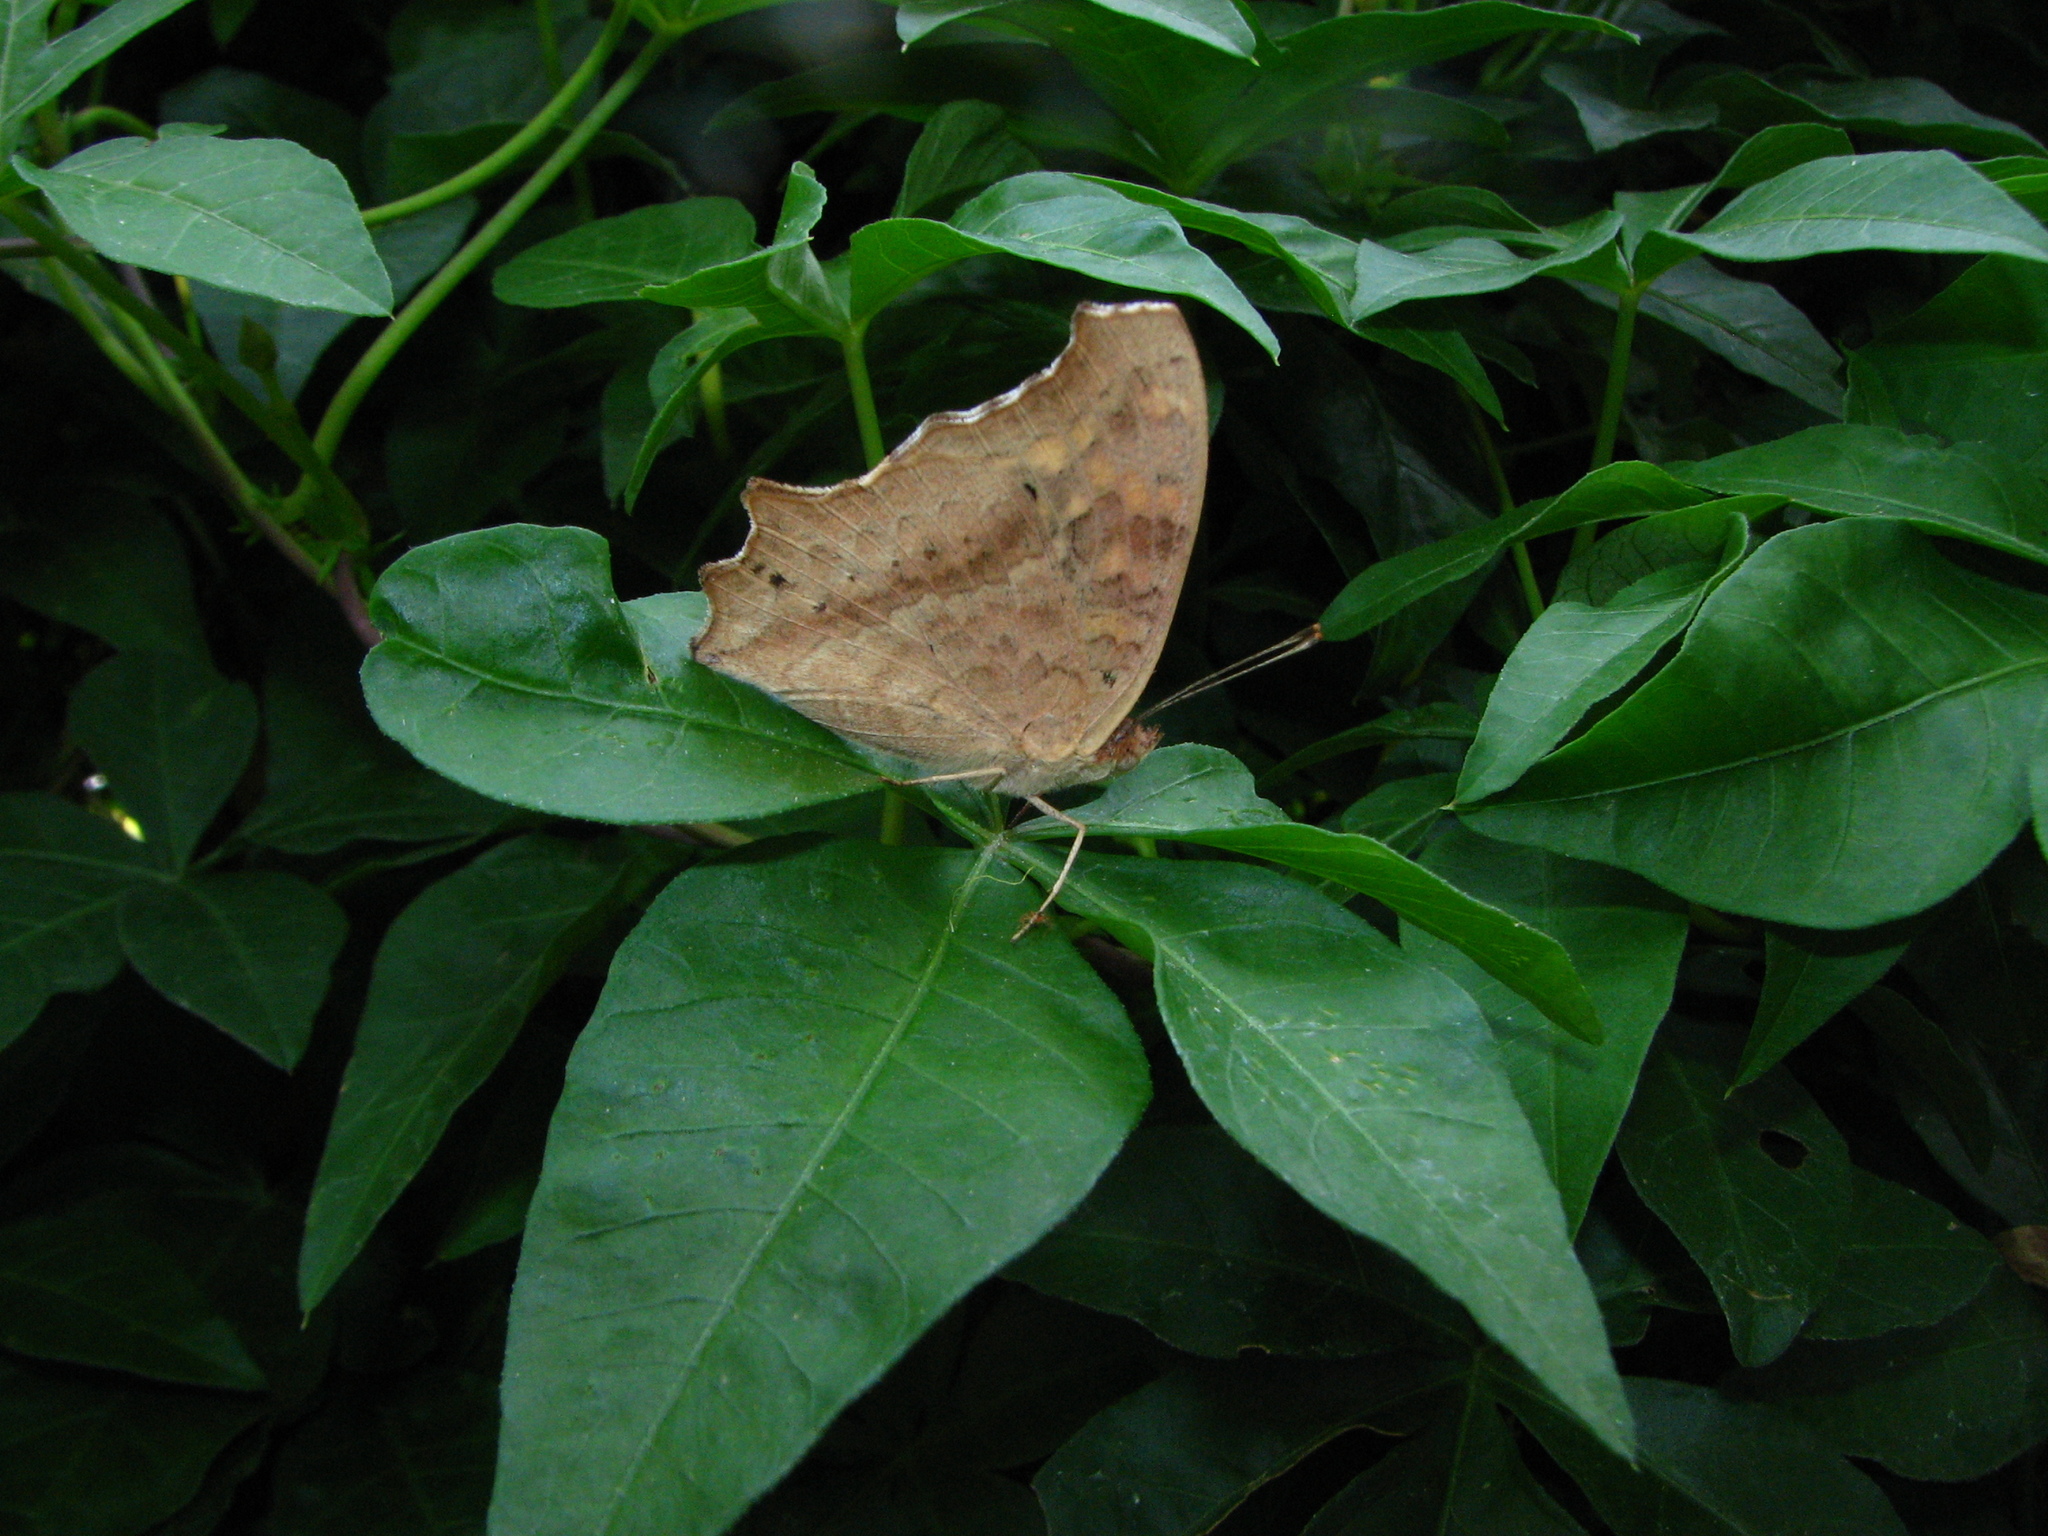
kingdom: Animalia
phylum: Arthropoda
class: Insecta
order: Lepidoptera
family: Nymphalidae
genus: Junonia
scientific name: Junonia lemonias
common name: Lemon pansy
